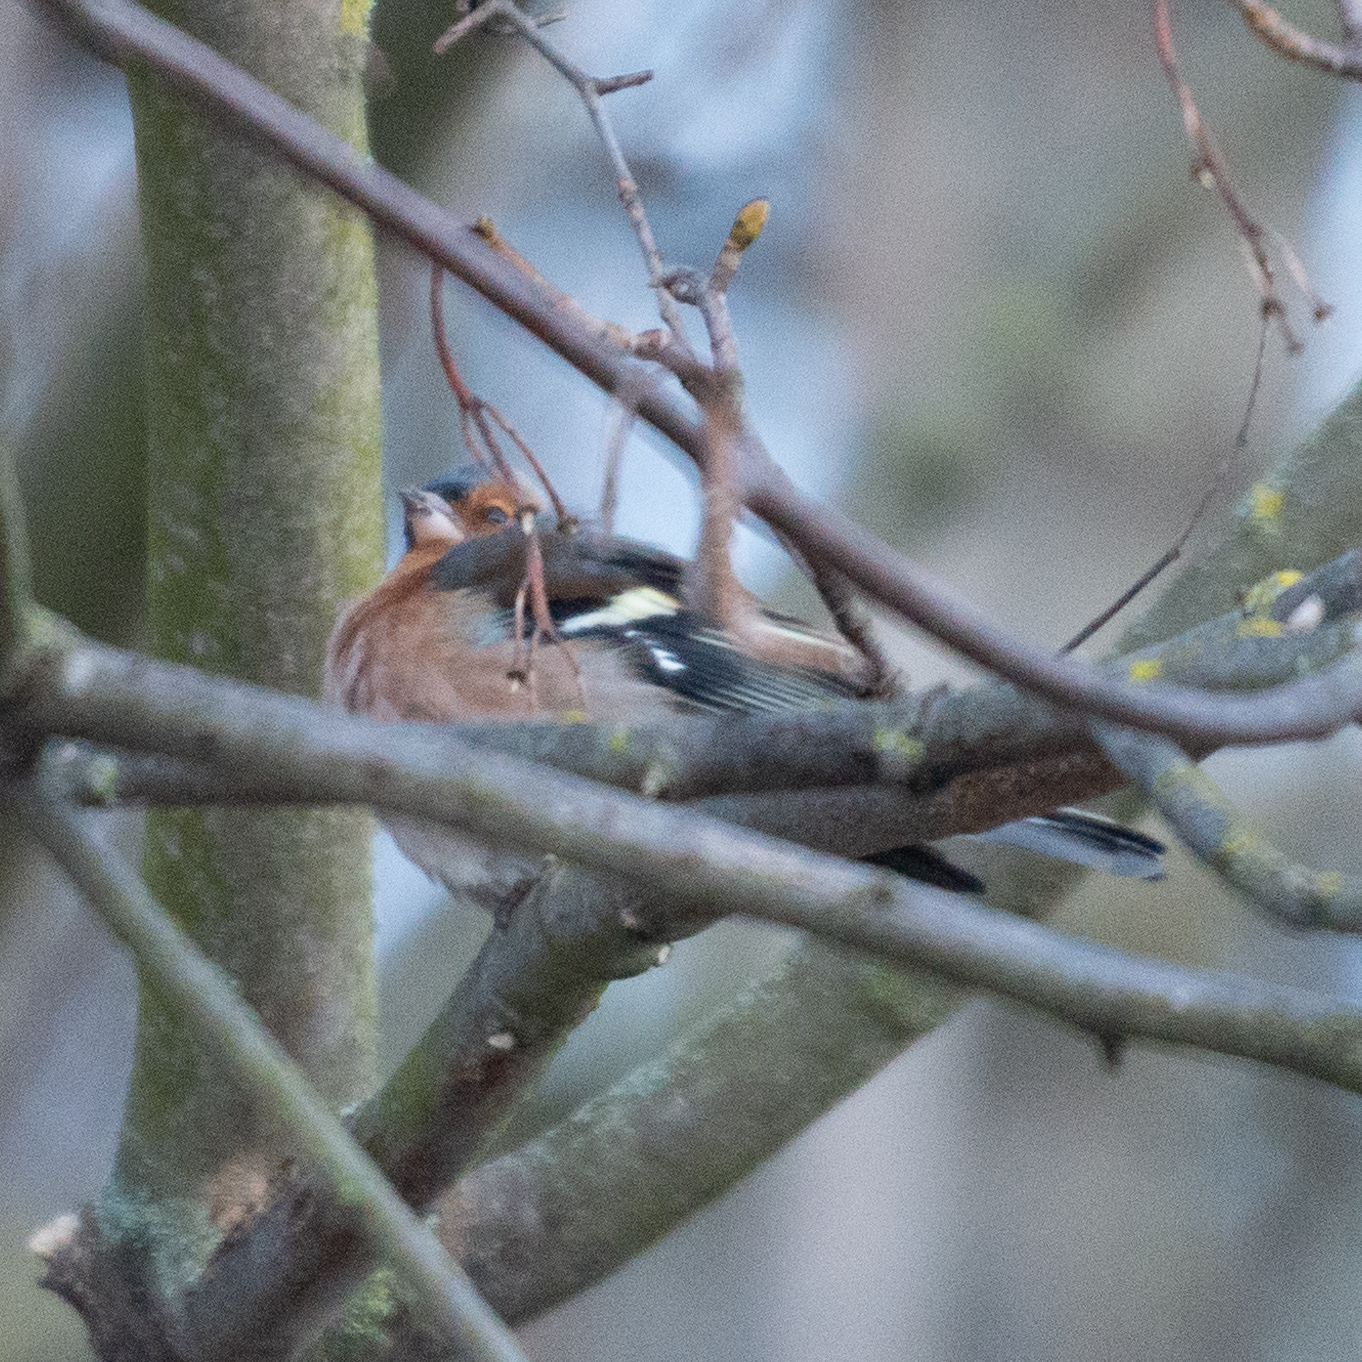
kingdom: Animalia
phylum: Chordata
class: Aves
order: Passeriformes
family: Fringillidae
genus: Fringilla
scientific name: Fringilla coelebs
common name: Common chaffinch
